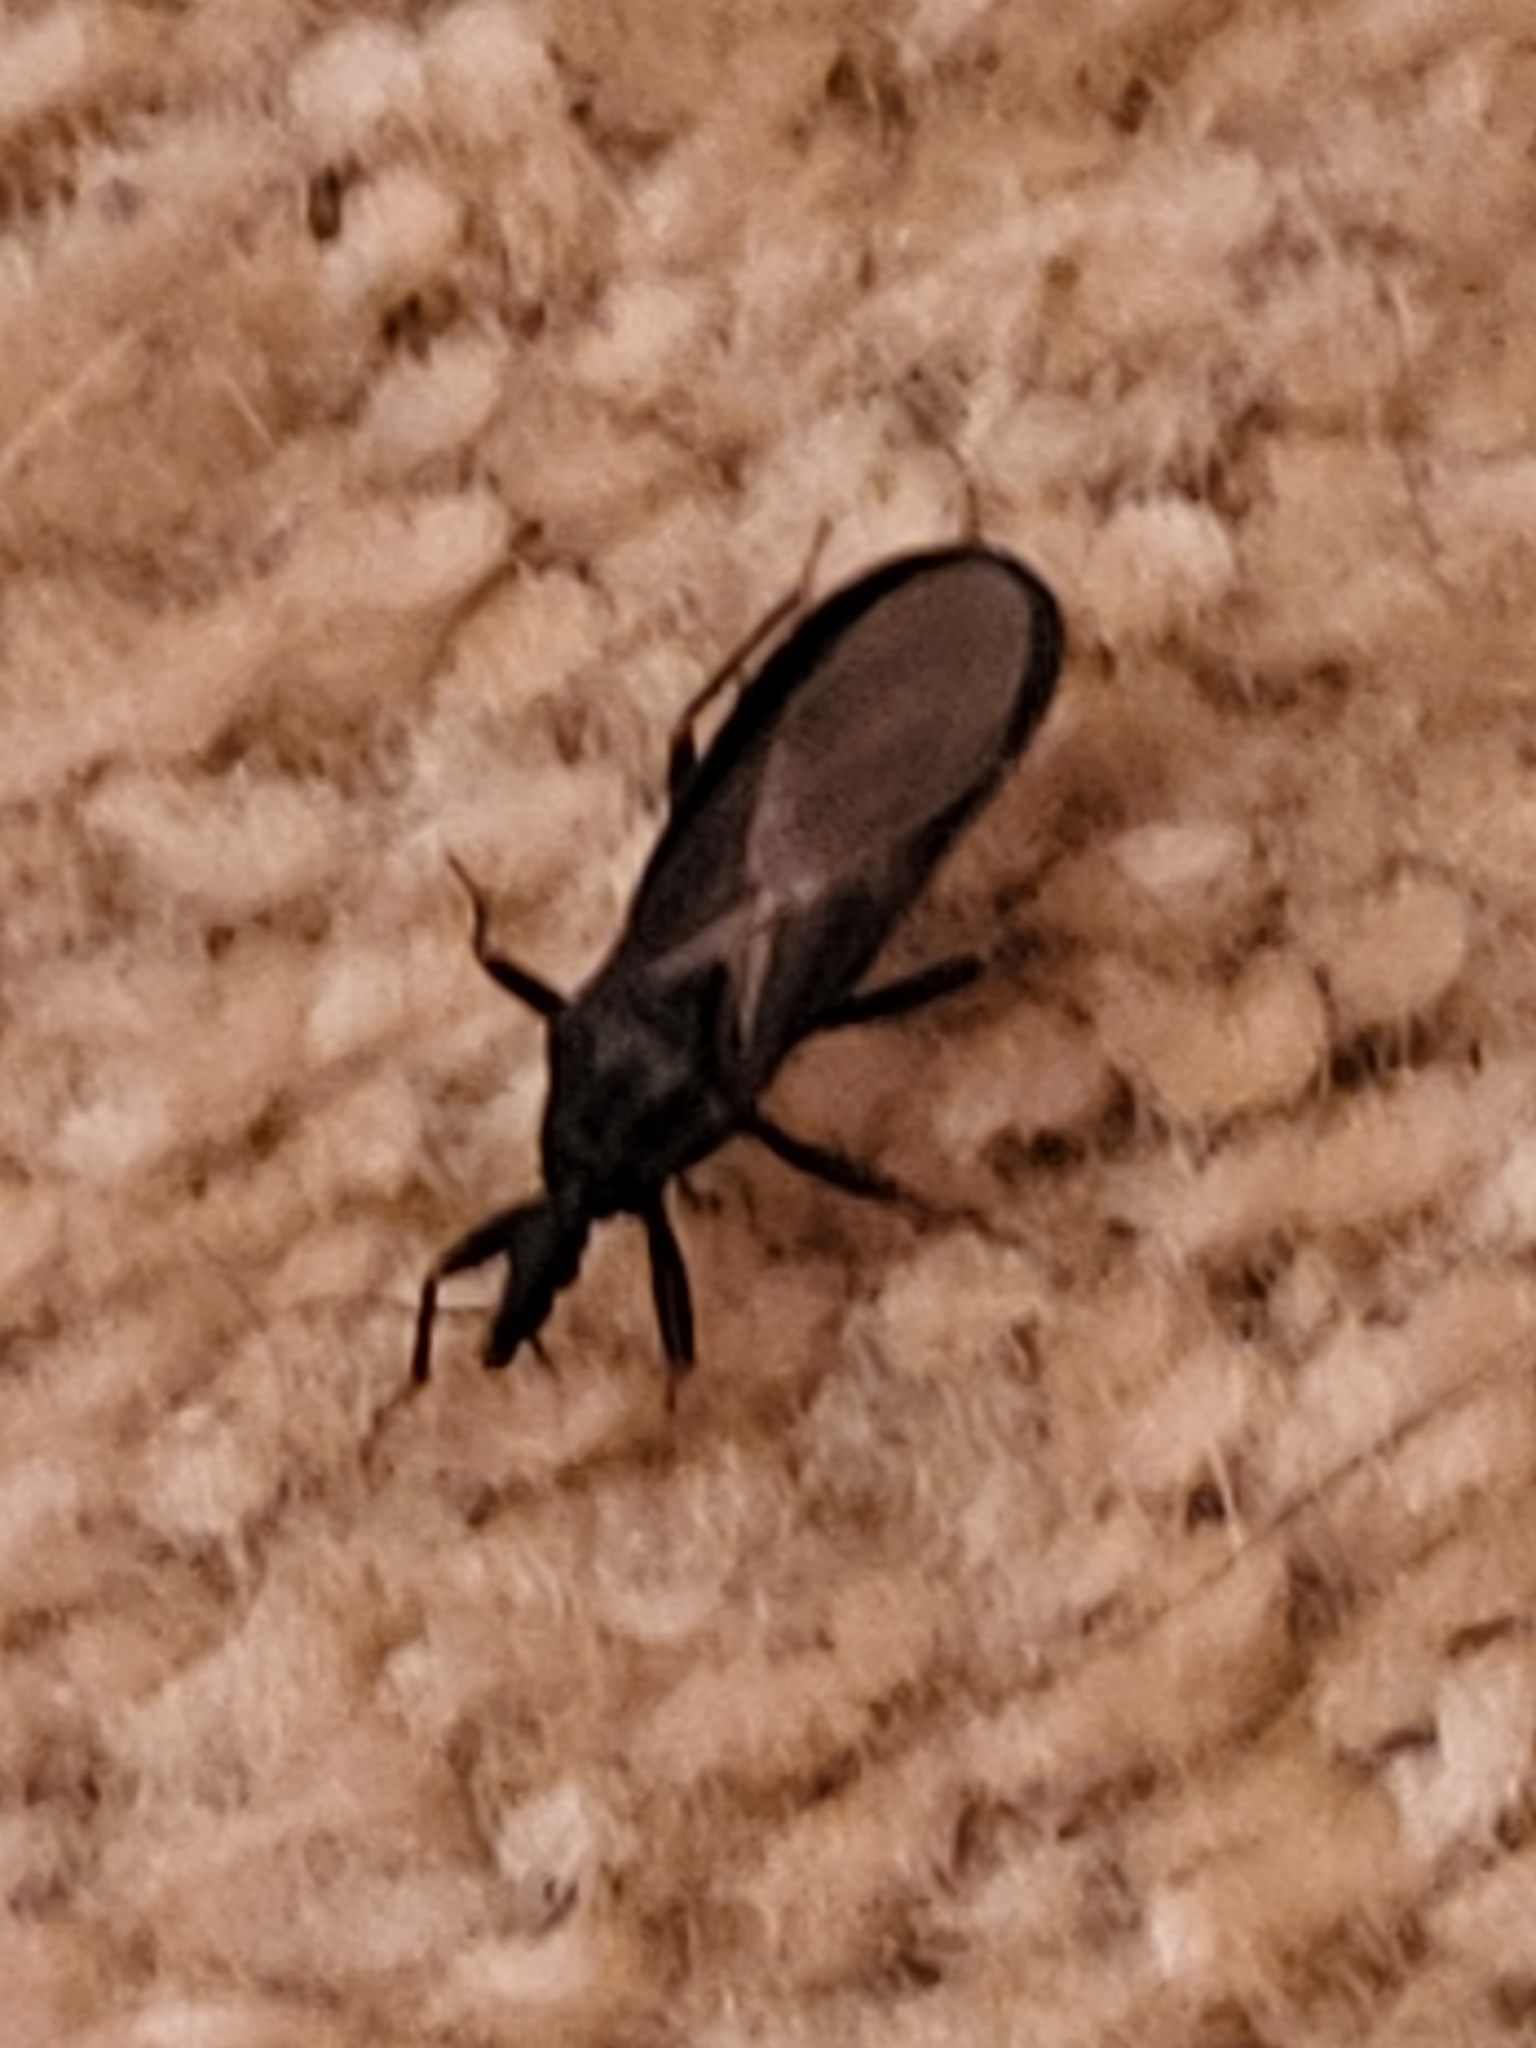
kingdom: Animalia
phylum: Arthropoda
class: Insecta
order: Hemiptera
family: Reduviidae
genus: Triatoma
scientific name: Triatoma protracta
